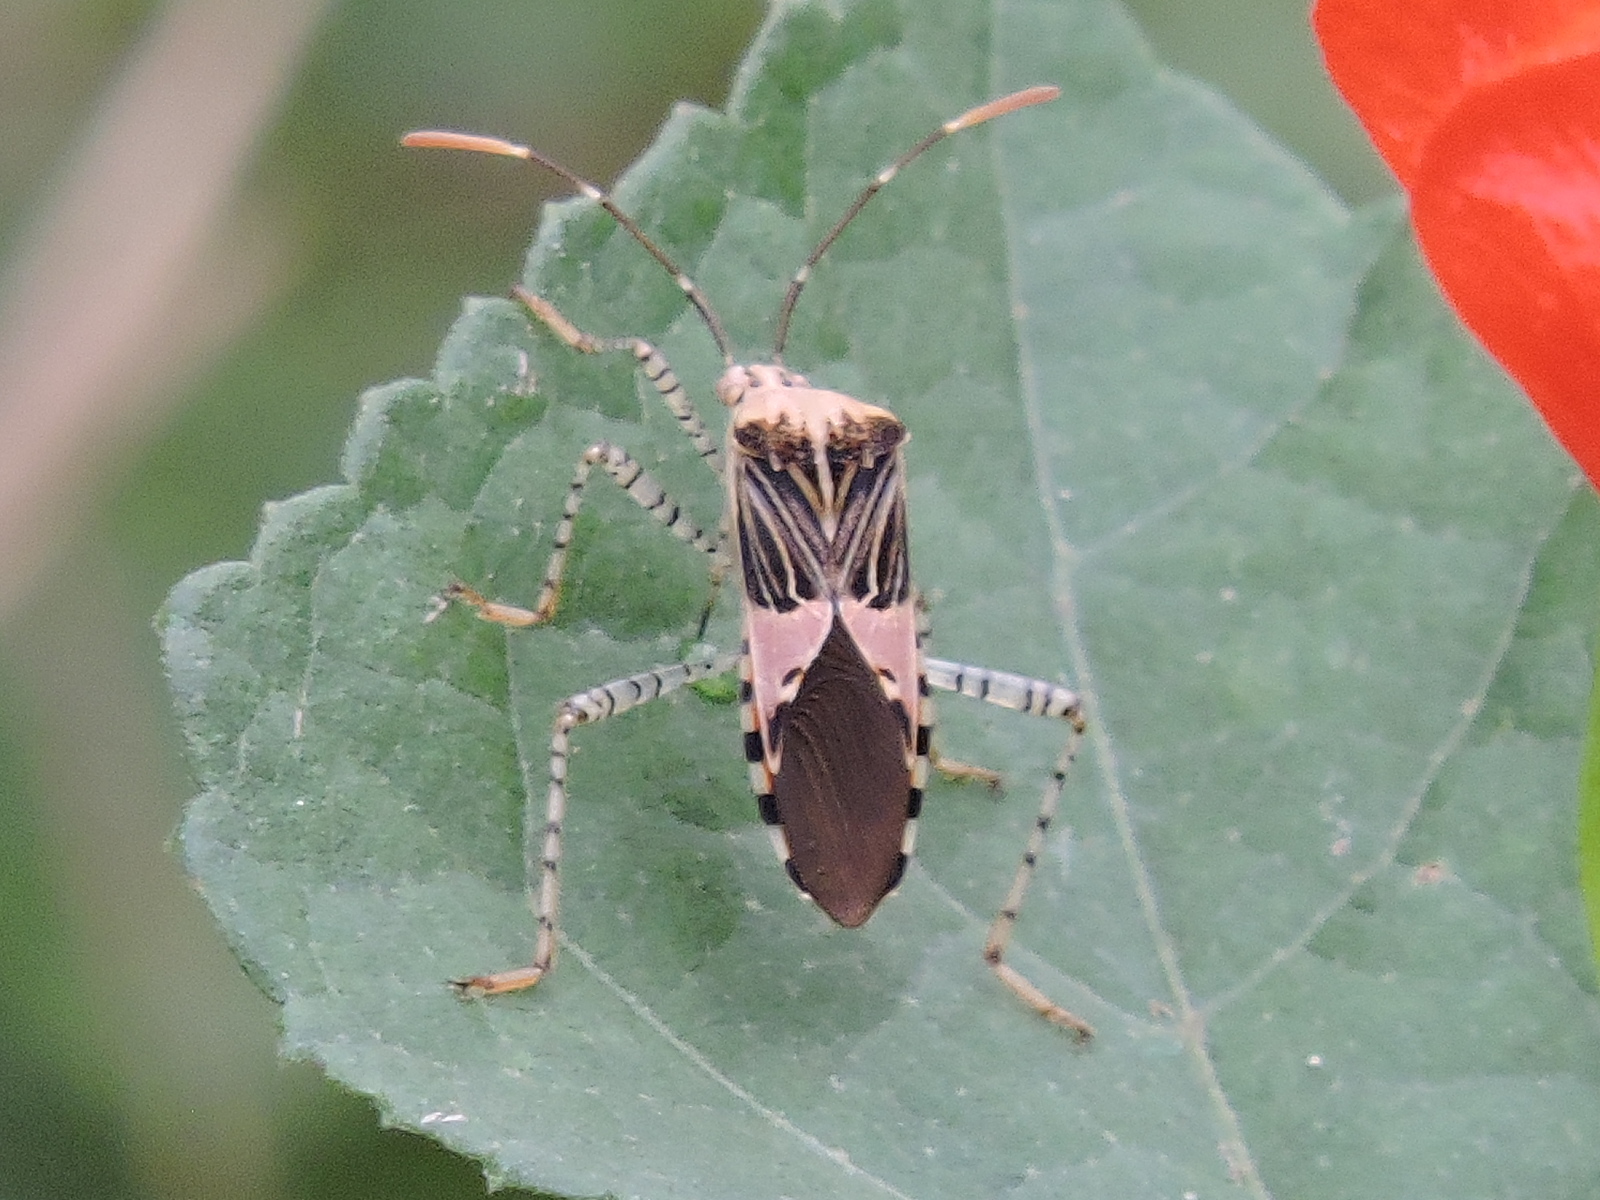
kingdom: Animalia
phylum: Arthropoda
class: Insecta
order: Hemiptera
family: Coreidae
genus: Hypselonotus
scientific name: Hypselonotus punctiventris
